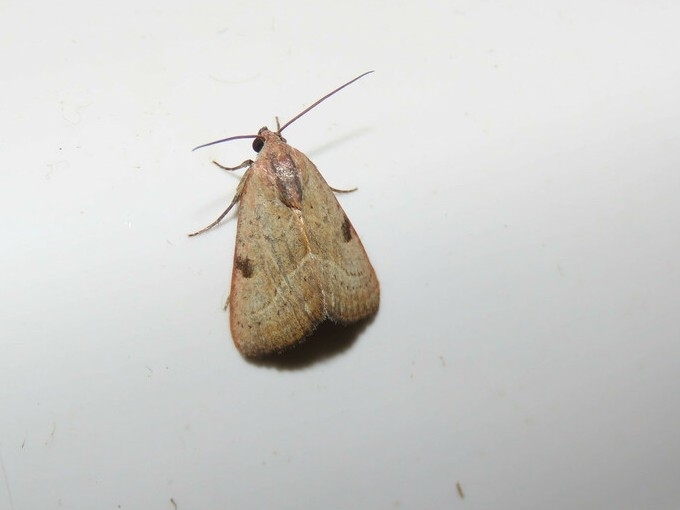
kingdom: Animalia
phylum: Arthropoda
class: Insecta
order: Lepidoptera
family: Noctuidae
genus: Galgula
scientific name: Galgula partita
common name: Wedgeling
